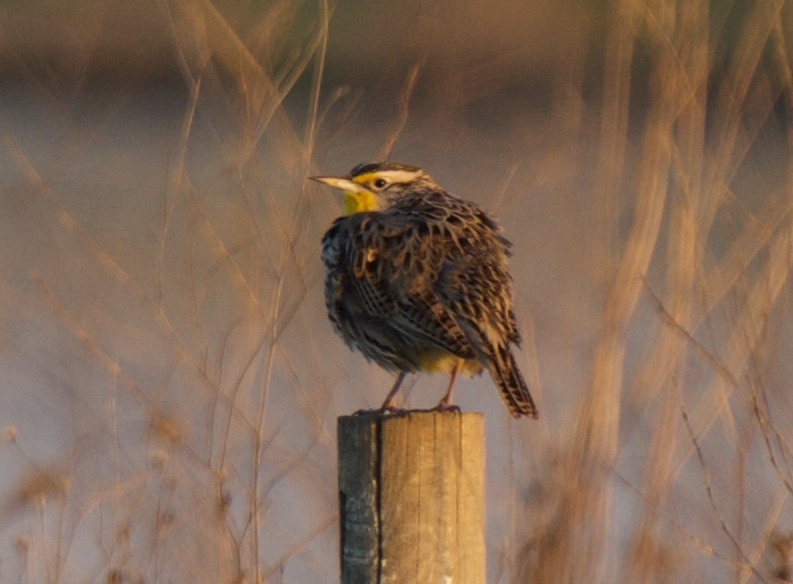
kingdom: Animalia
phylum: Chordata
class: Aves
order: Passeriformes
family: Icteridae
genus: Sturnella
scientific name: Sturnella neglecta
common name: Western meadowlark
